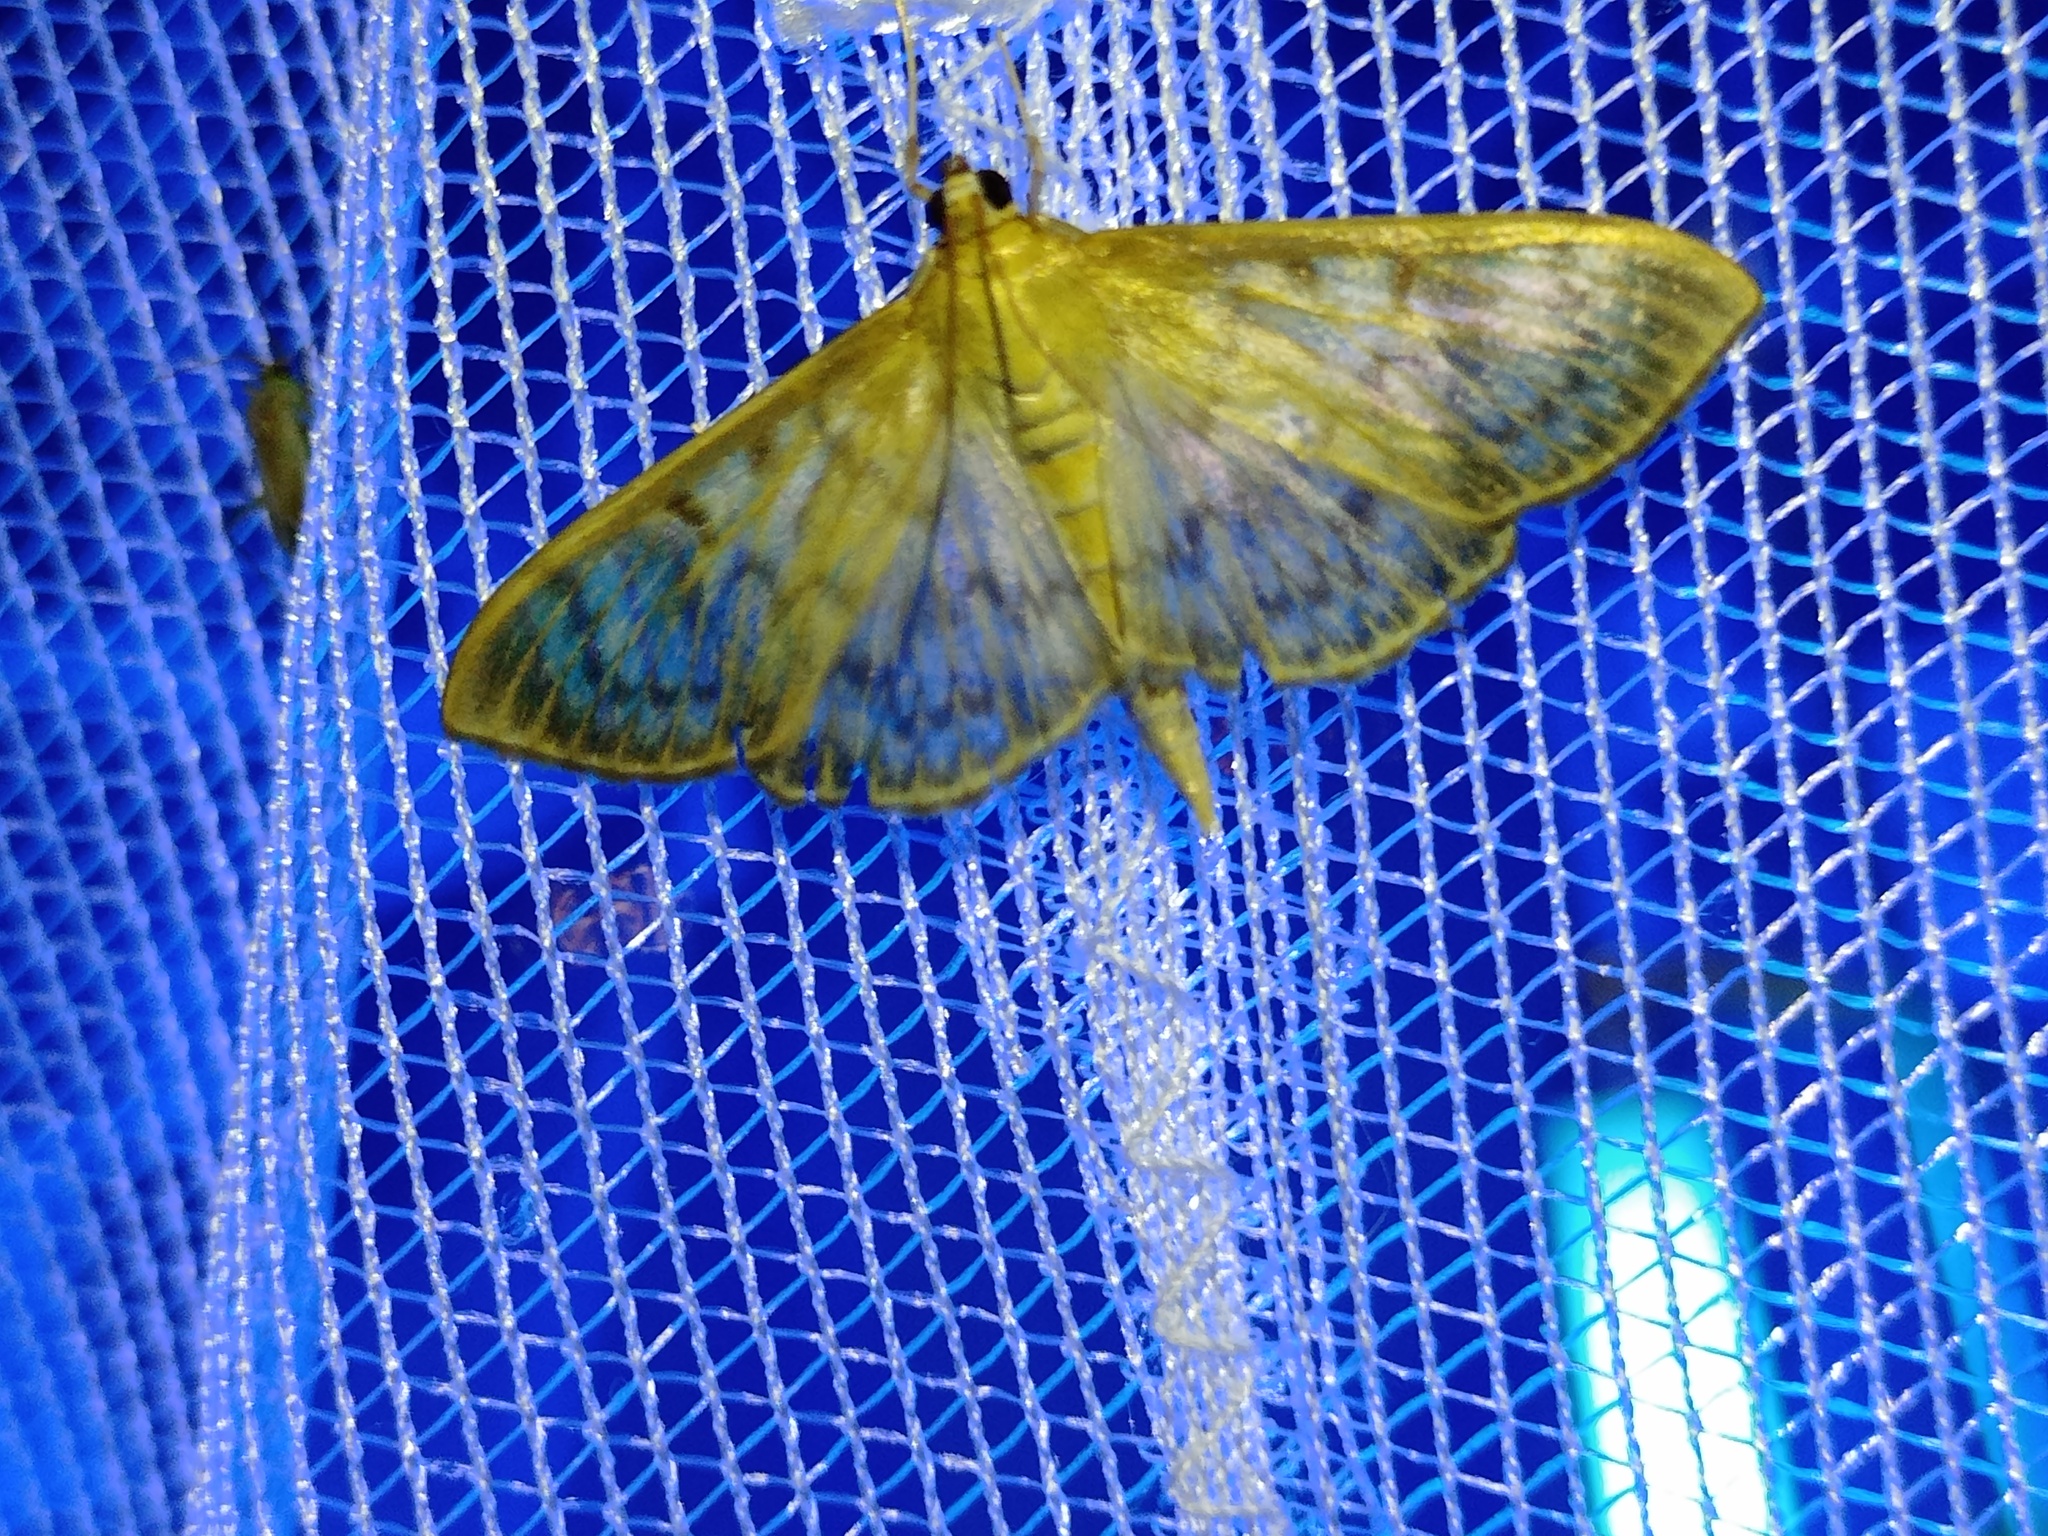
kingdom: Animalia
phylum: Arthropoda
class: Insecta
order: Lepidoptera
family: Crambidae
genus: Patania
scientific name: Patania ruralis
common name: Mother of pearl
